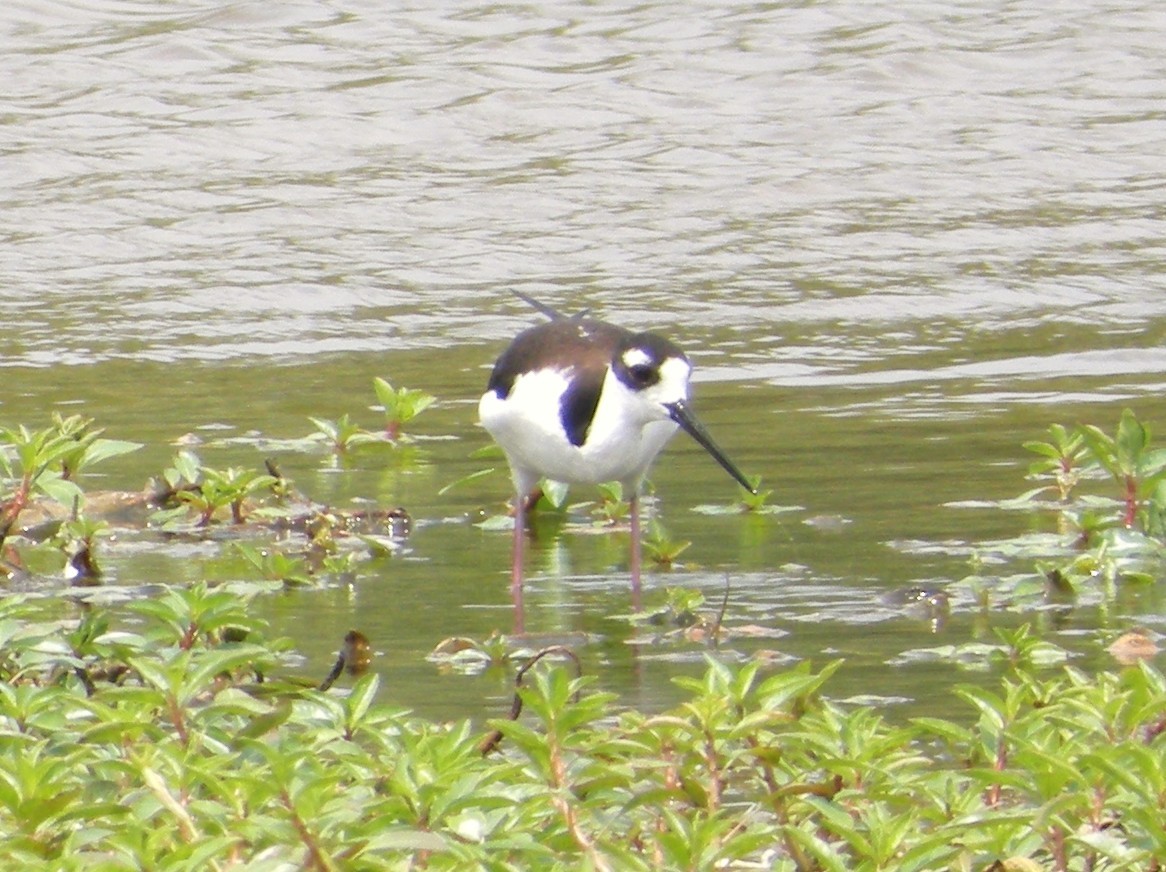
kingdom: Animalia
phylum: Chordata
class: Aves
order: Charadriiformes
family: Recurvirostridae
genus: Himantopus
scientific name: Himantopus mexicanus
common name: Black-necked stilt
